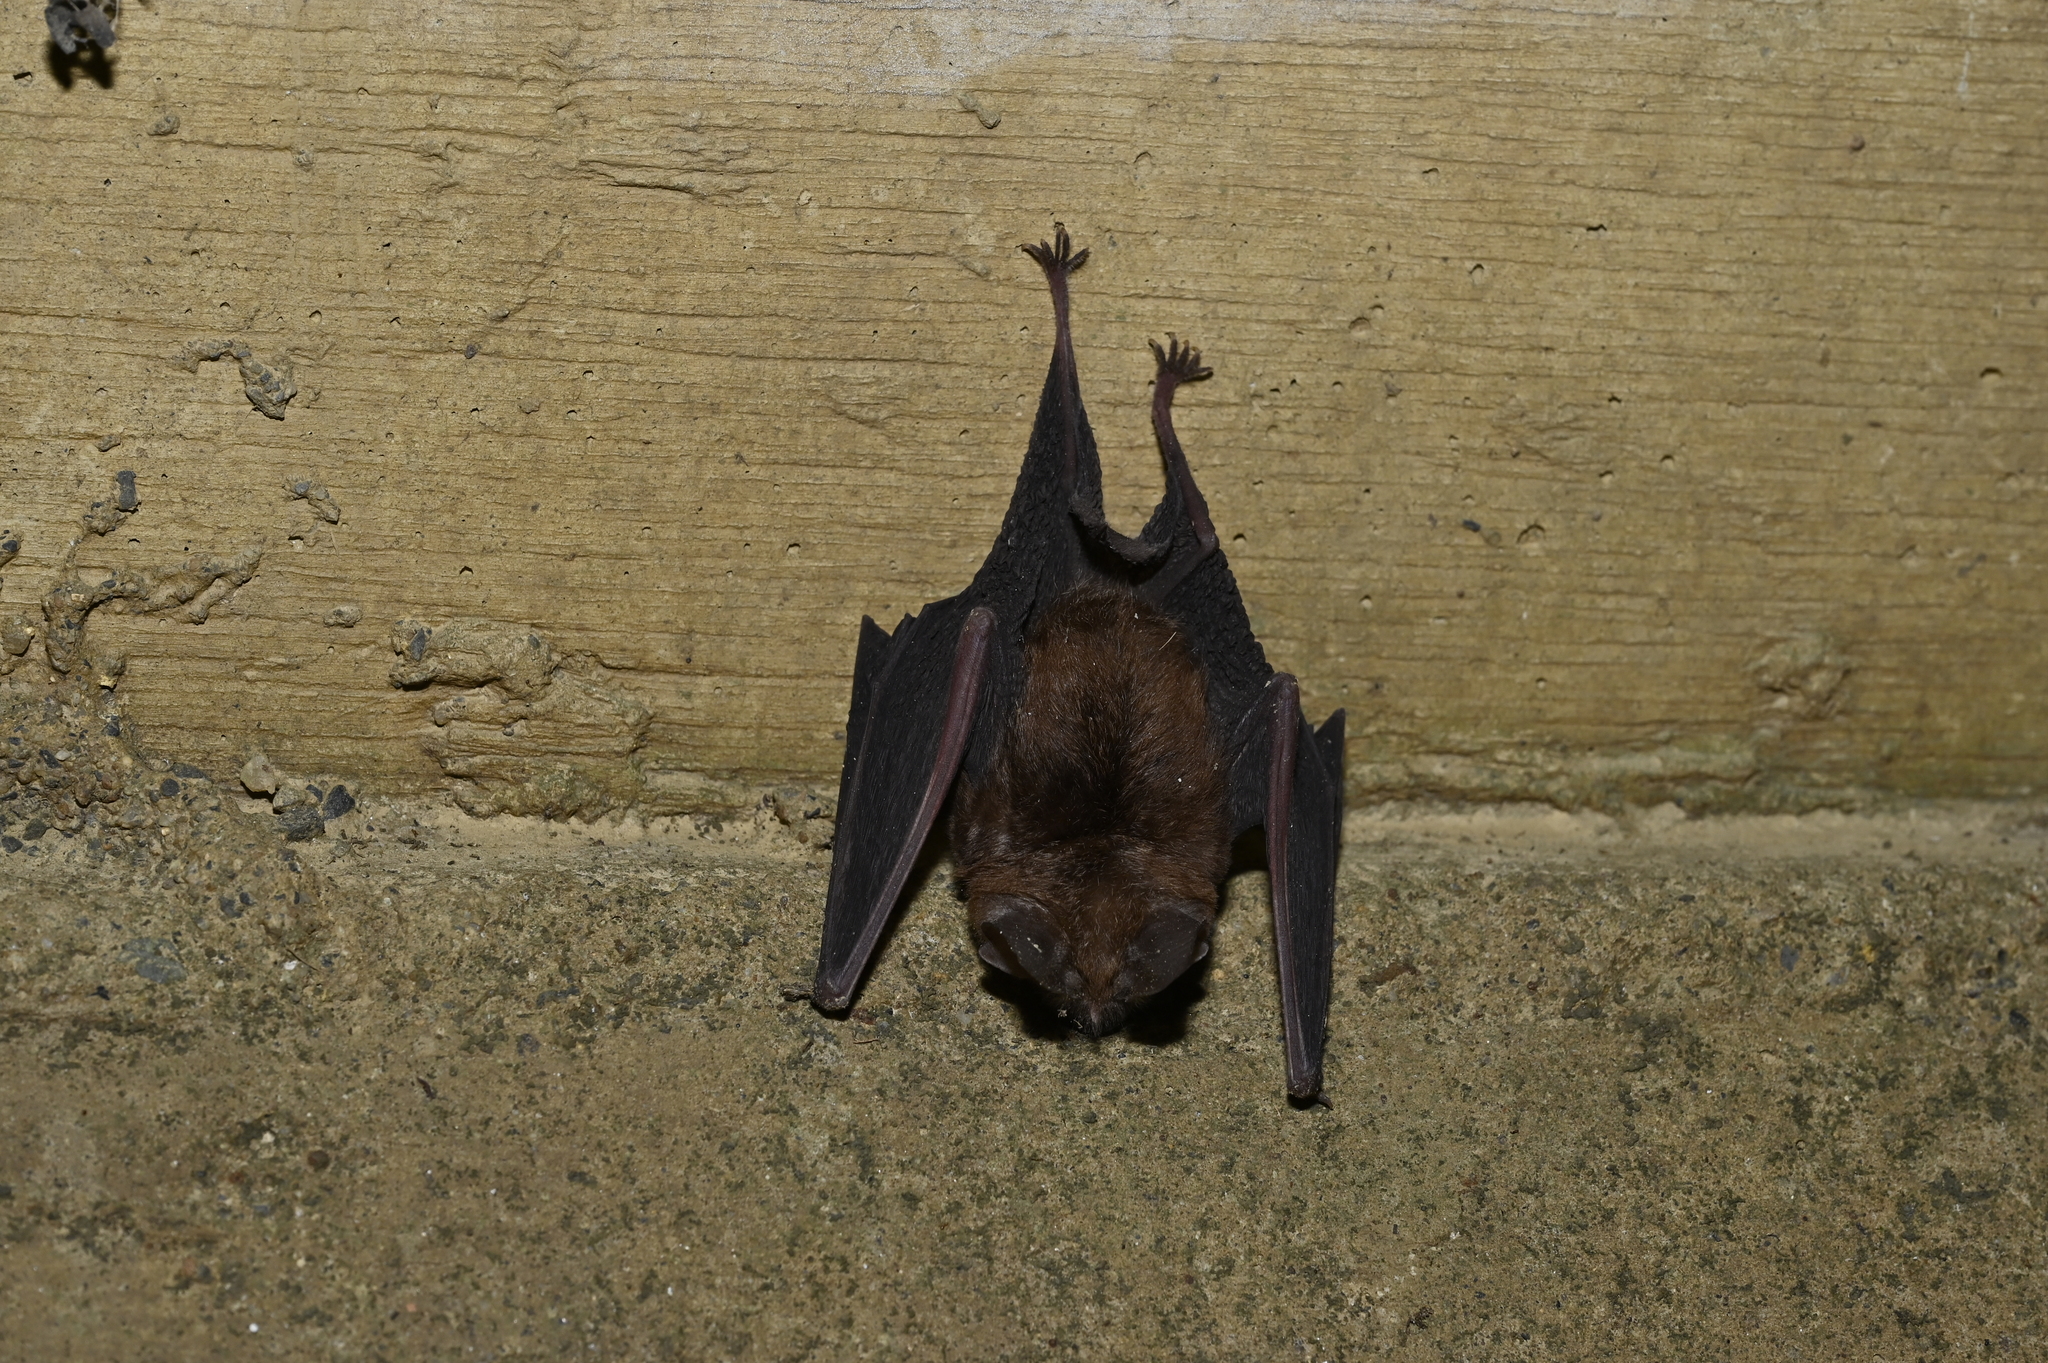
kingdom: Animalia
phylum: Chordata
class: Mammalia
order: Chiroptera
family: Rhinolophidae
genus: Rhinolophus
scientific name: Rhinolophus monoceros
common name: Formosan lesser horseshoe bat
